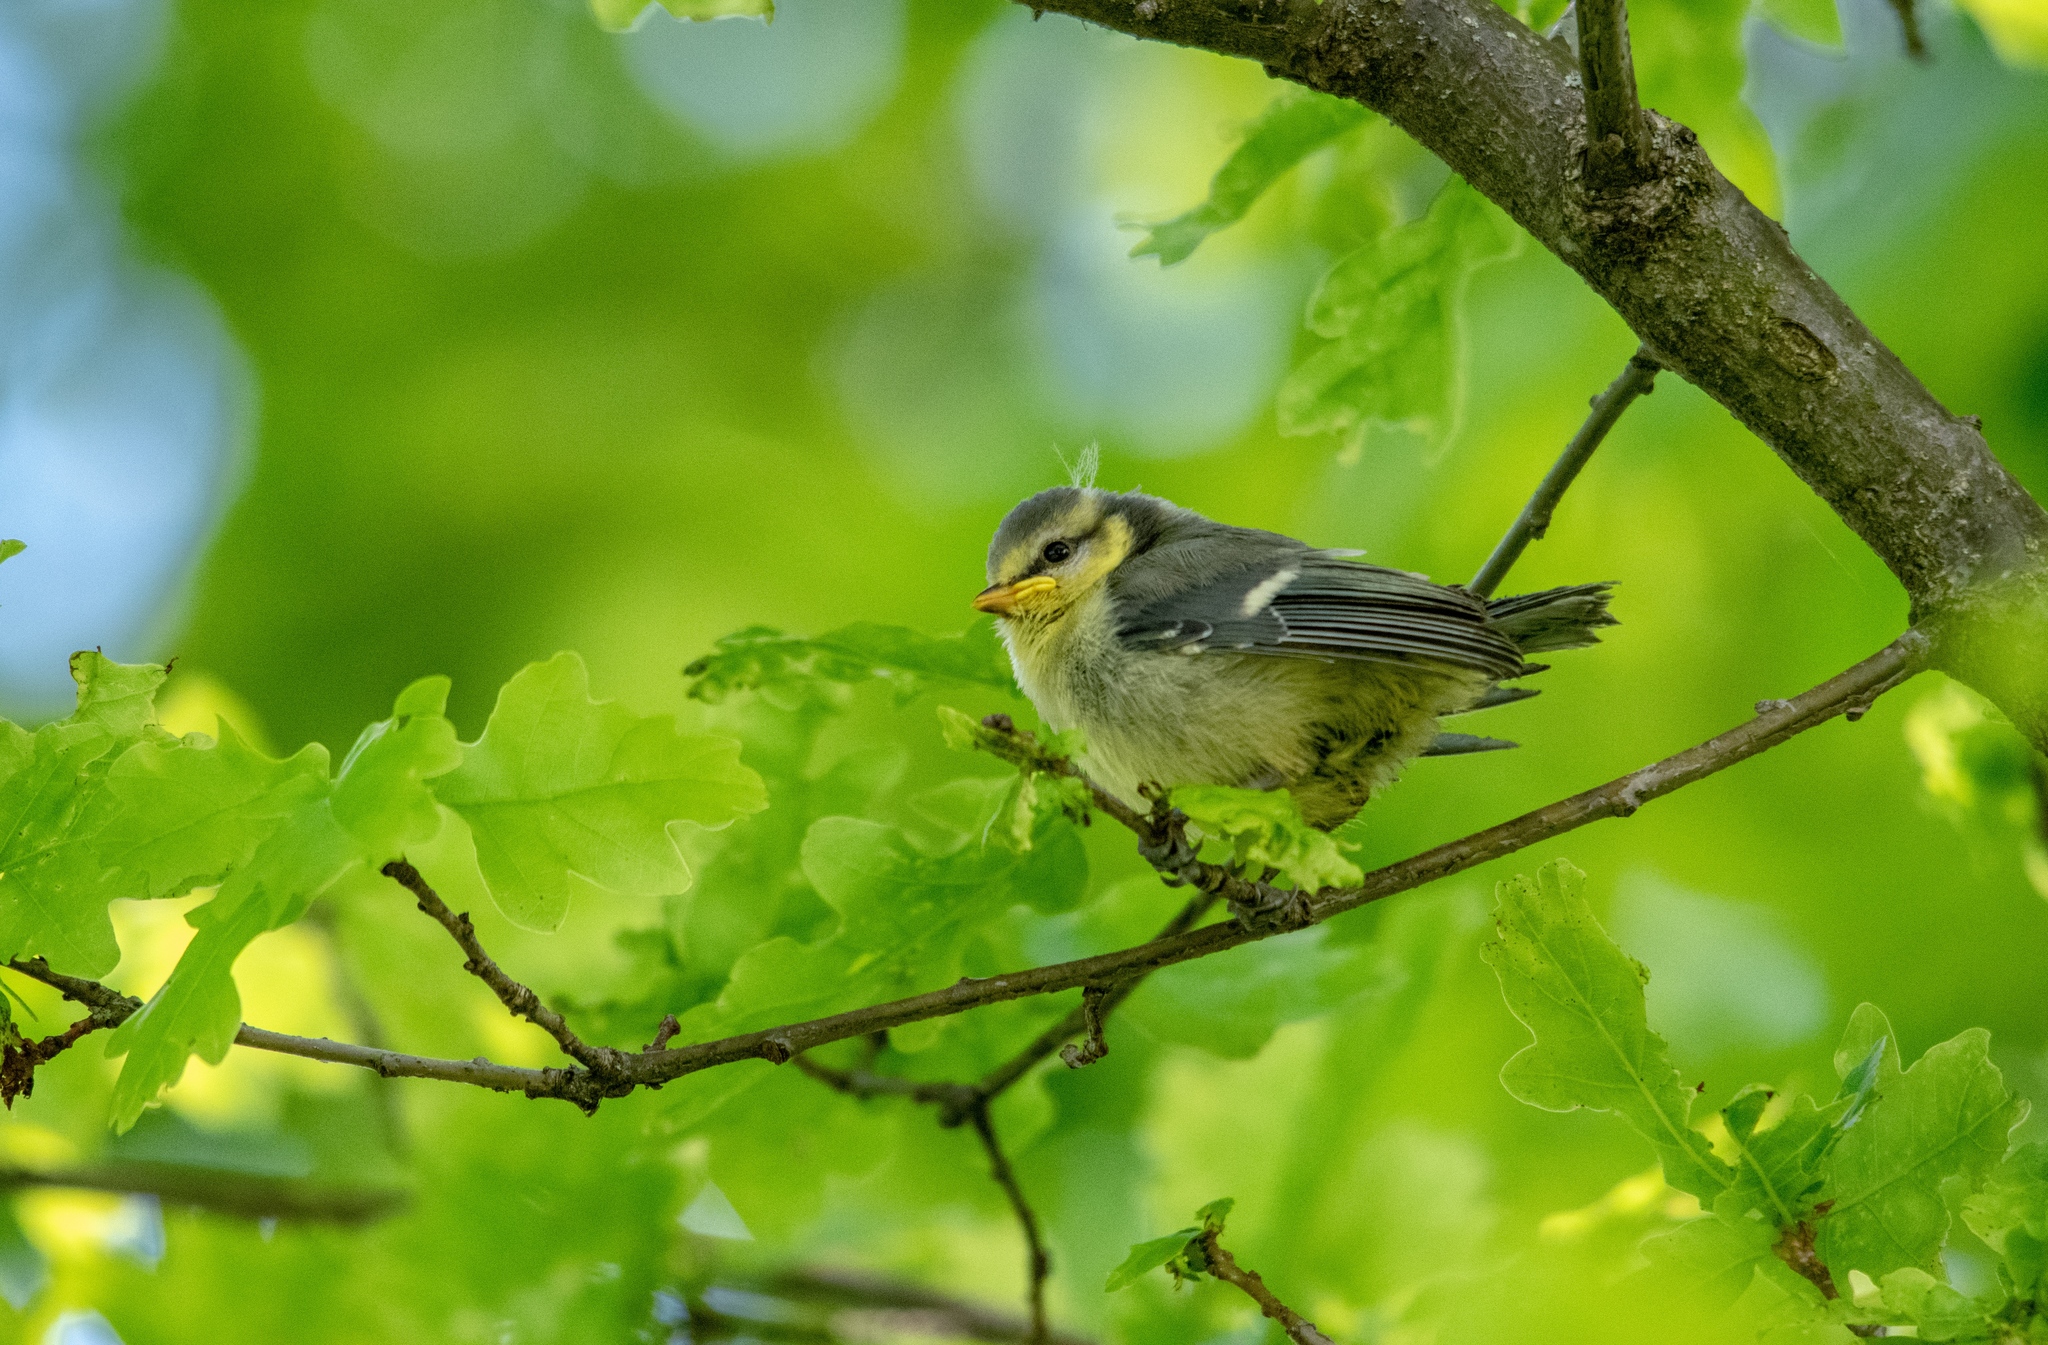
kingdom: Animalia
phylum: Chordata
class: Aves
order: Passeriformes
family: Paridae
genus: Cyanistes
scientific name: Cyanistes caeruleus
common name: Eurasian blue tit
